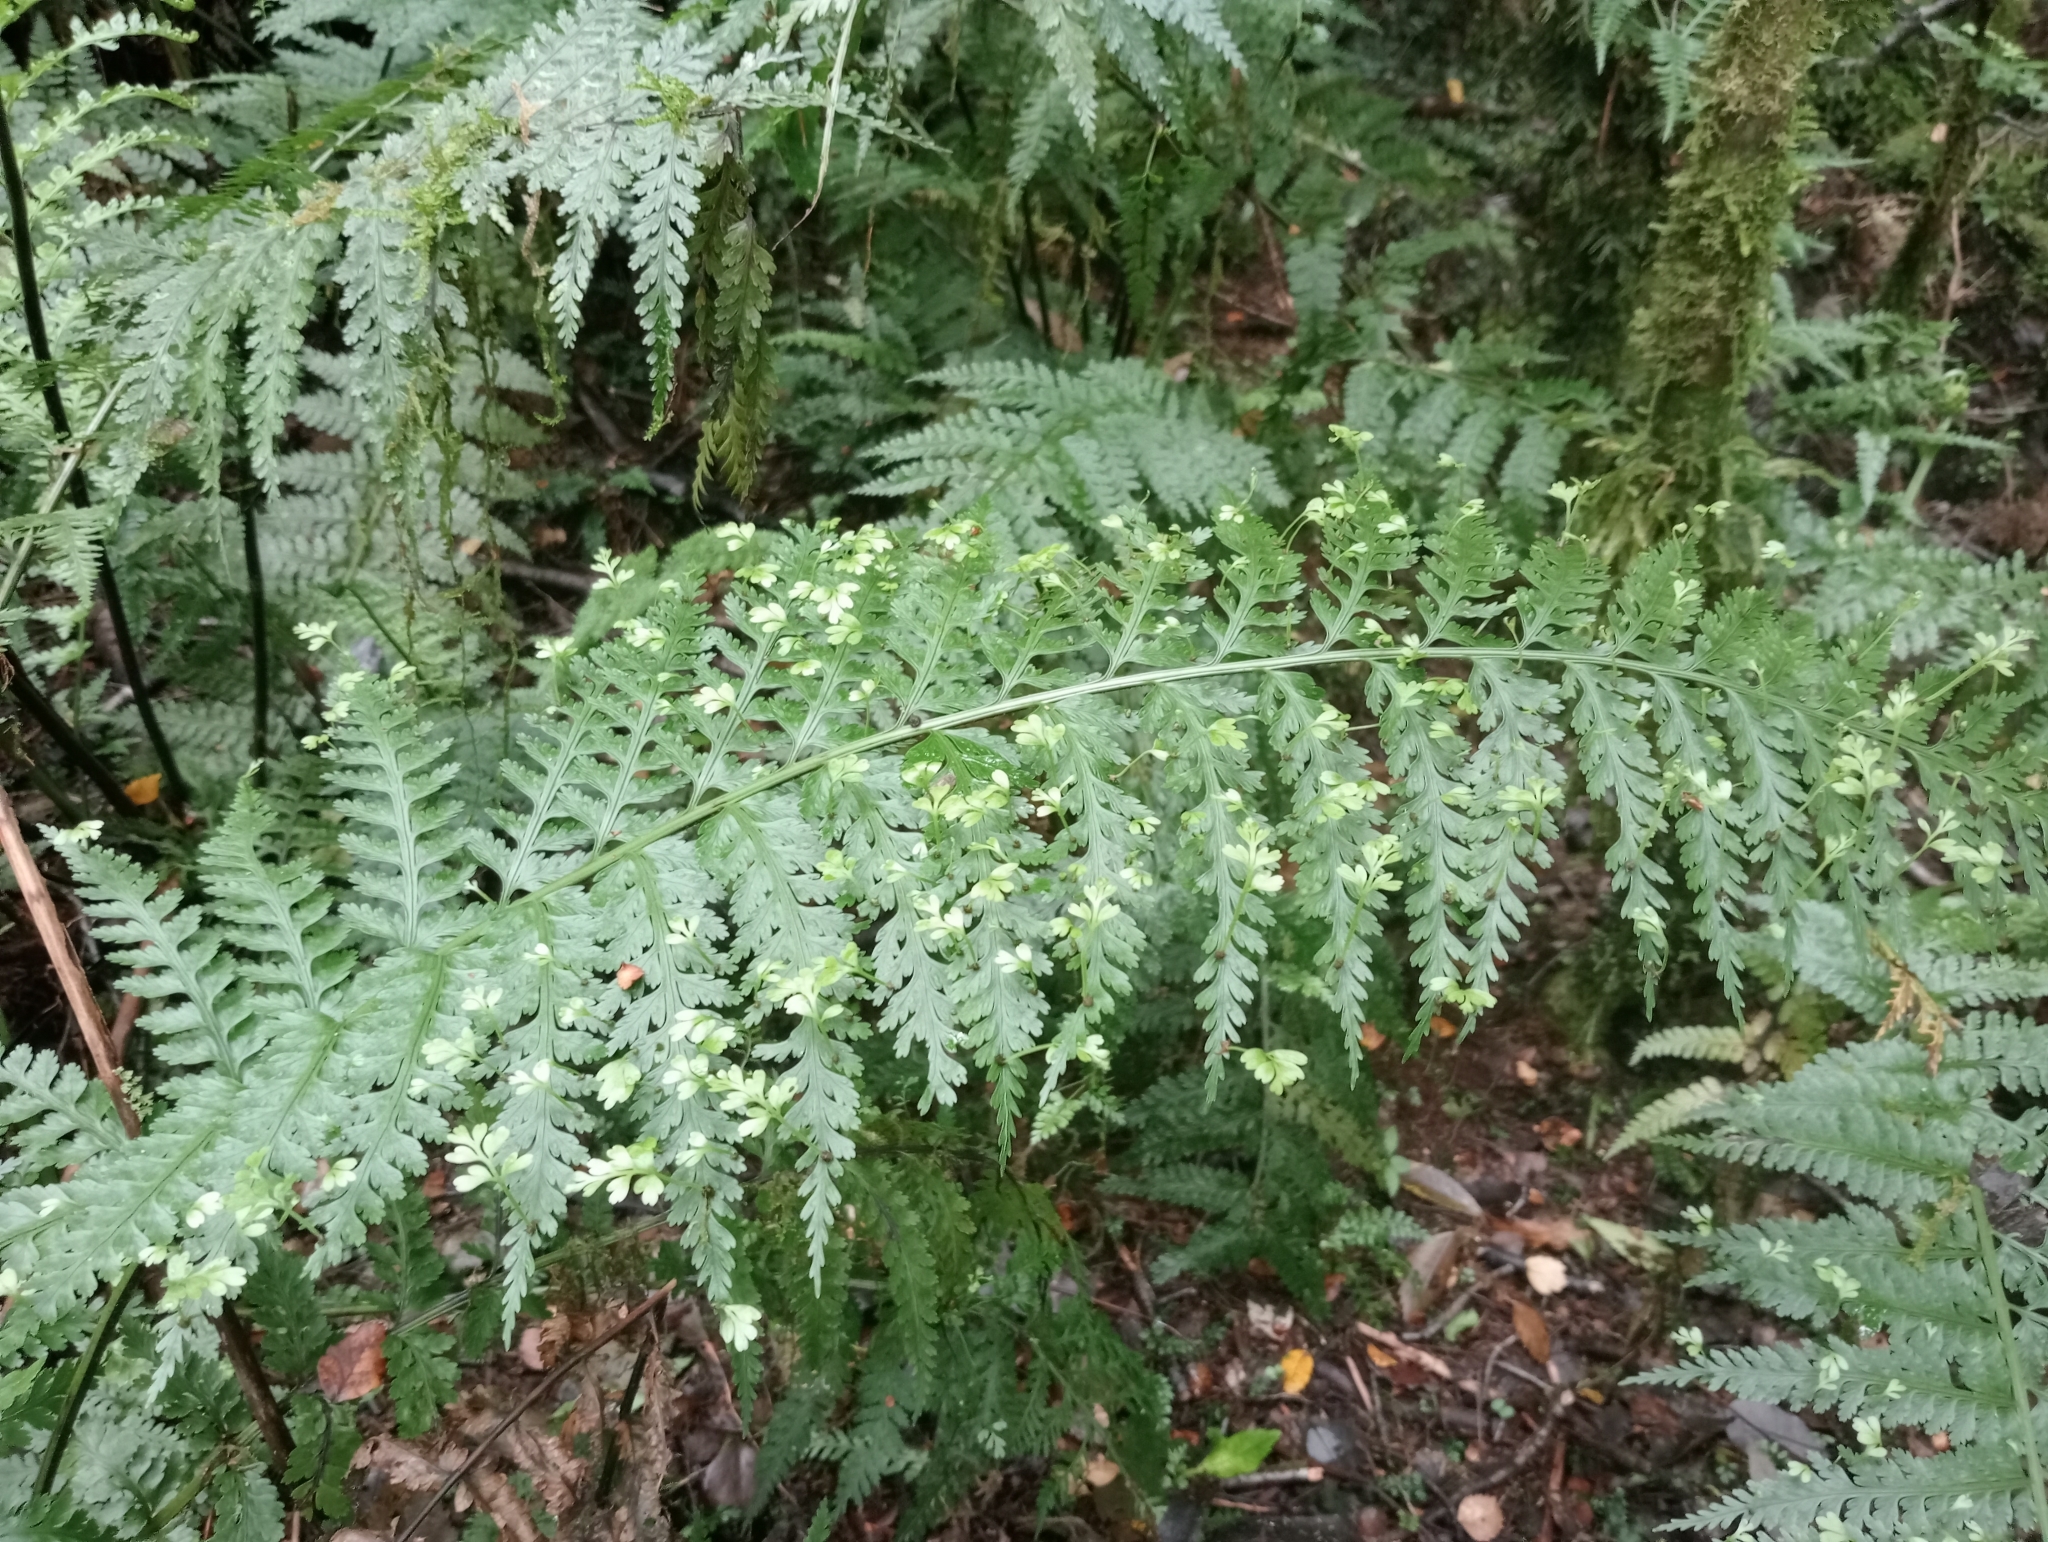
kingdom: Plantae
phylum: Tracheophyta
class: Polypodiopsida
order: Polypodiales
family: Aspleniaceae
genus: Asplenium
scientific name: Asplenium bulbiferum
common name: Mother fern
